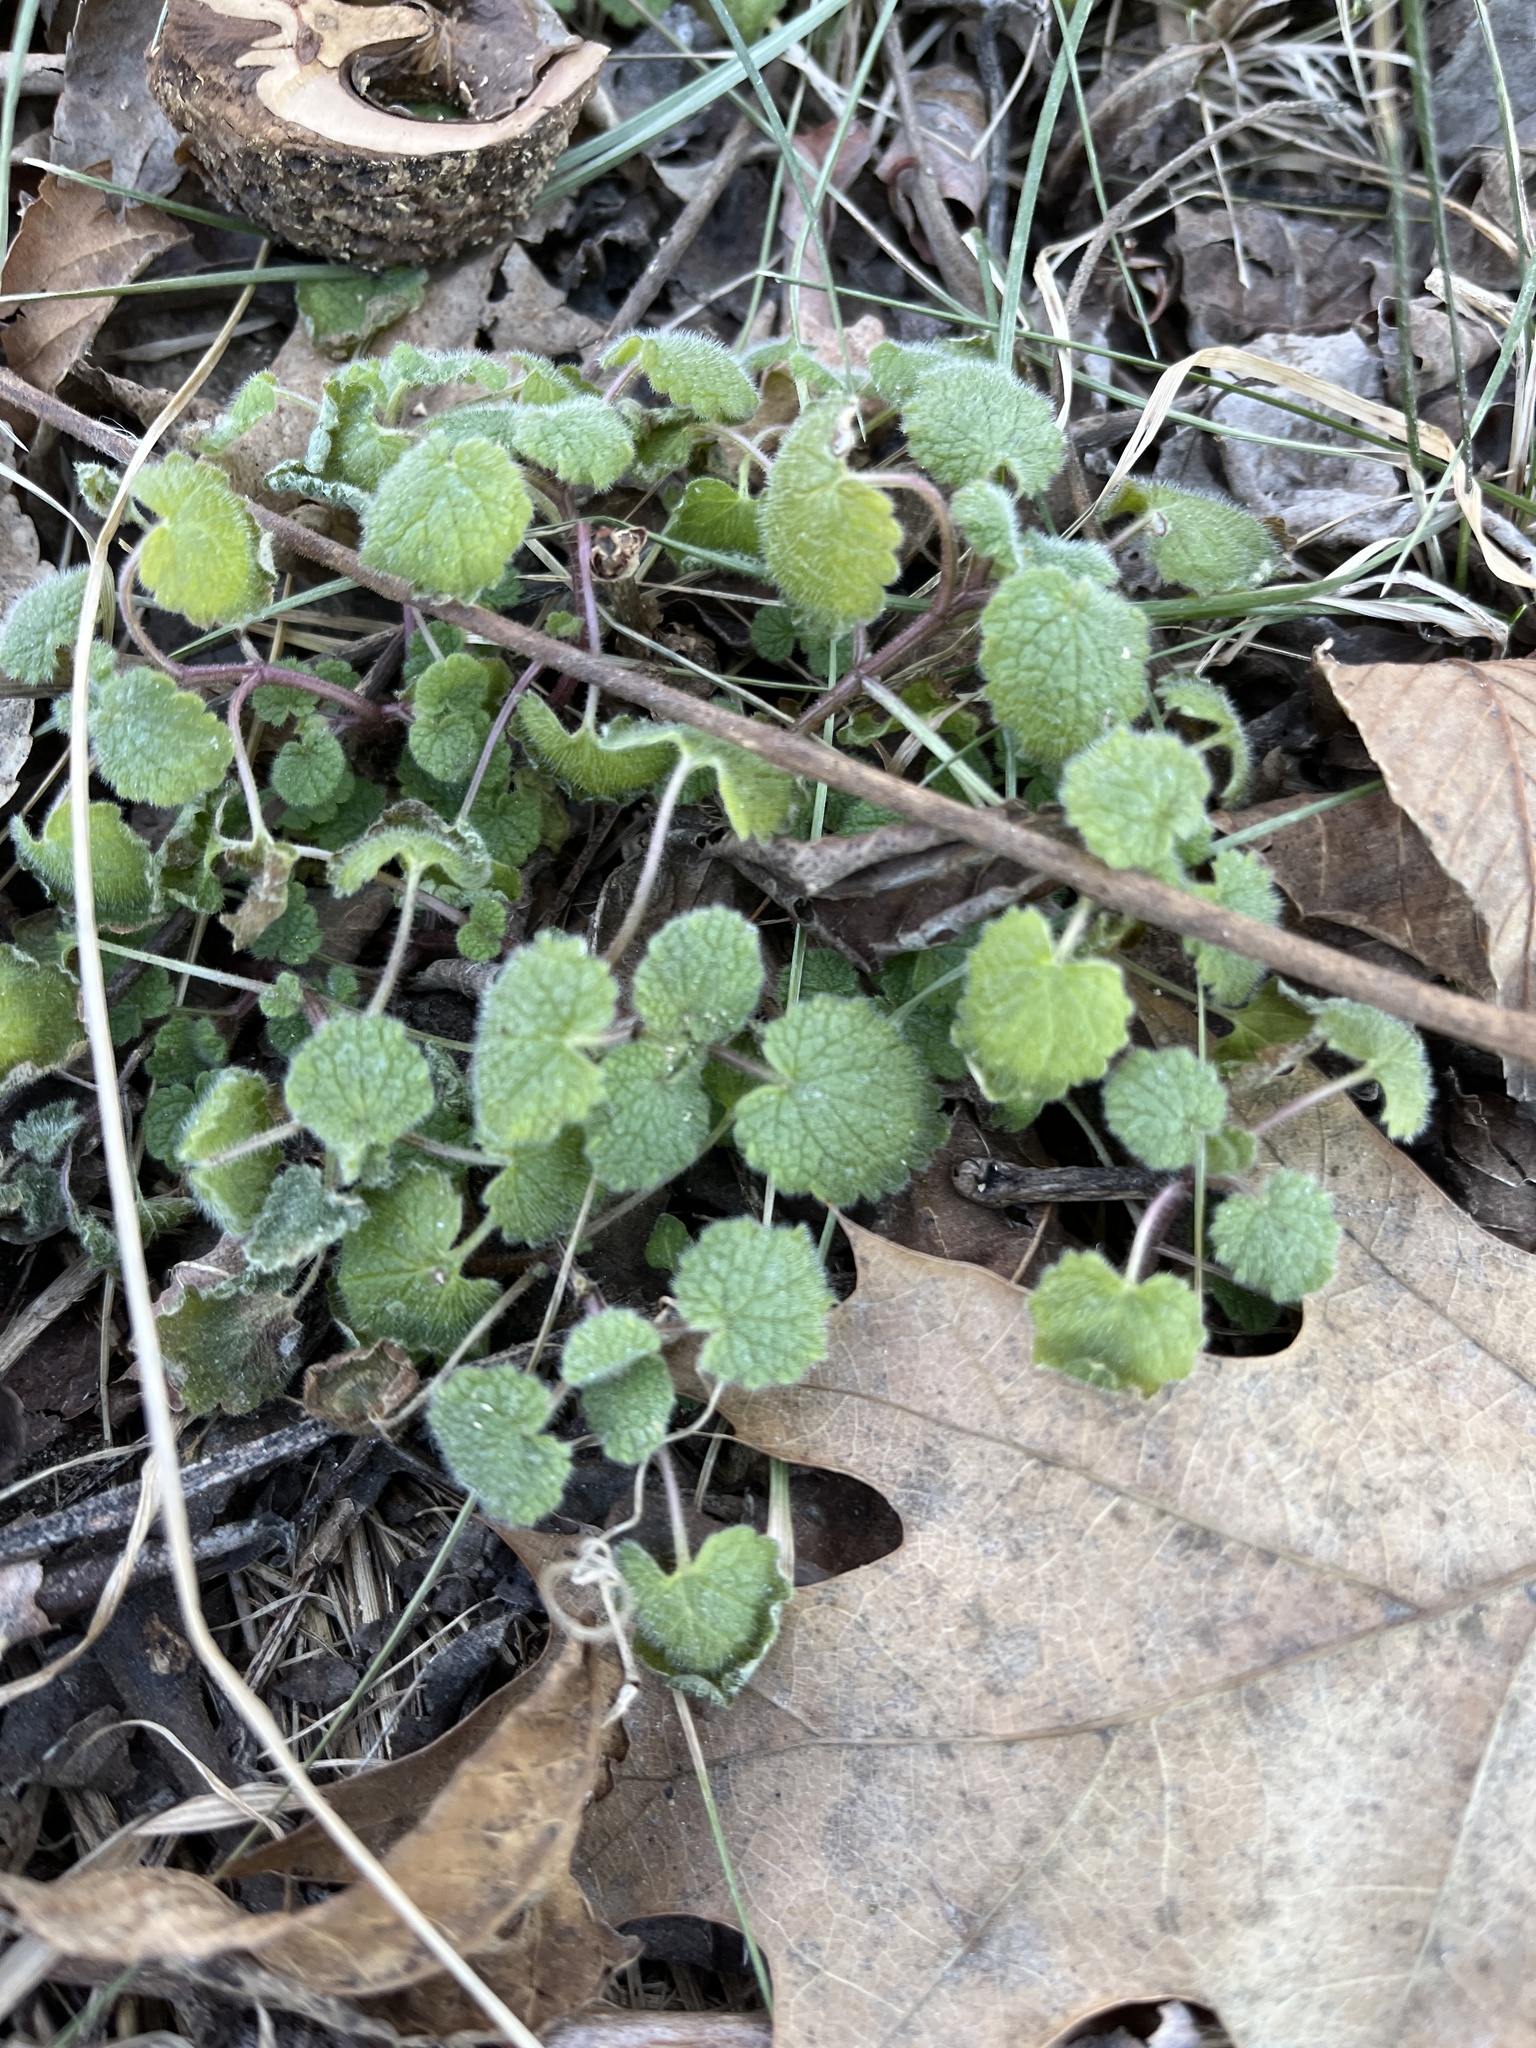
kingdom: Plantae
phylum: Tracheophyta
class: Magnoliopsida
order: Lamiales
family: Lamiaceae
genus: Lamium
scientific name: Lamium purpureum
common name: Red dead-nettle
